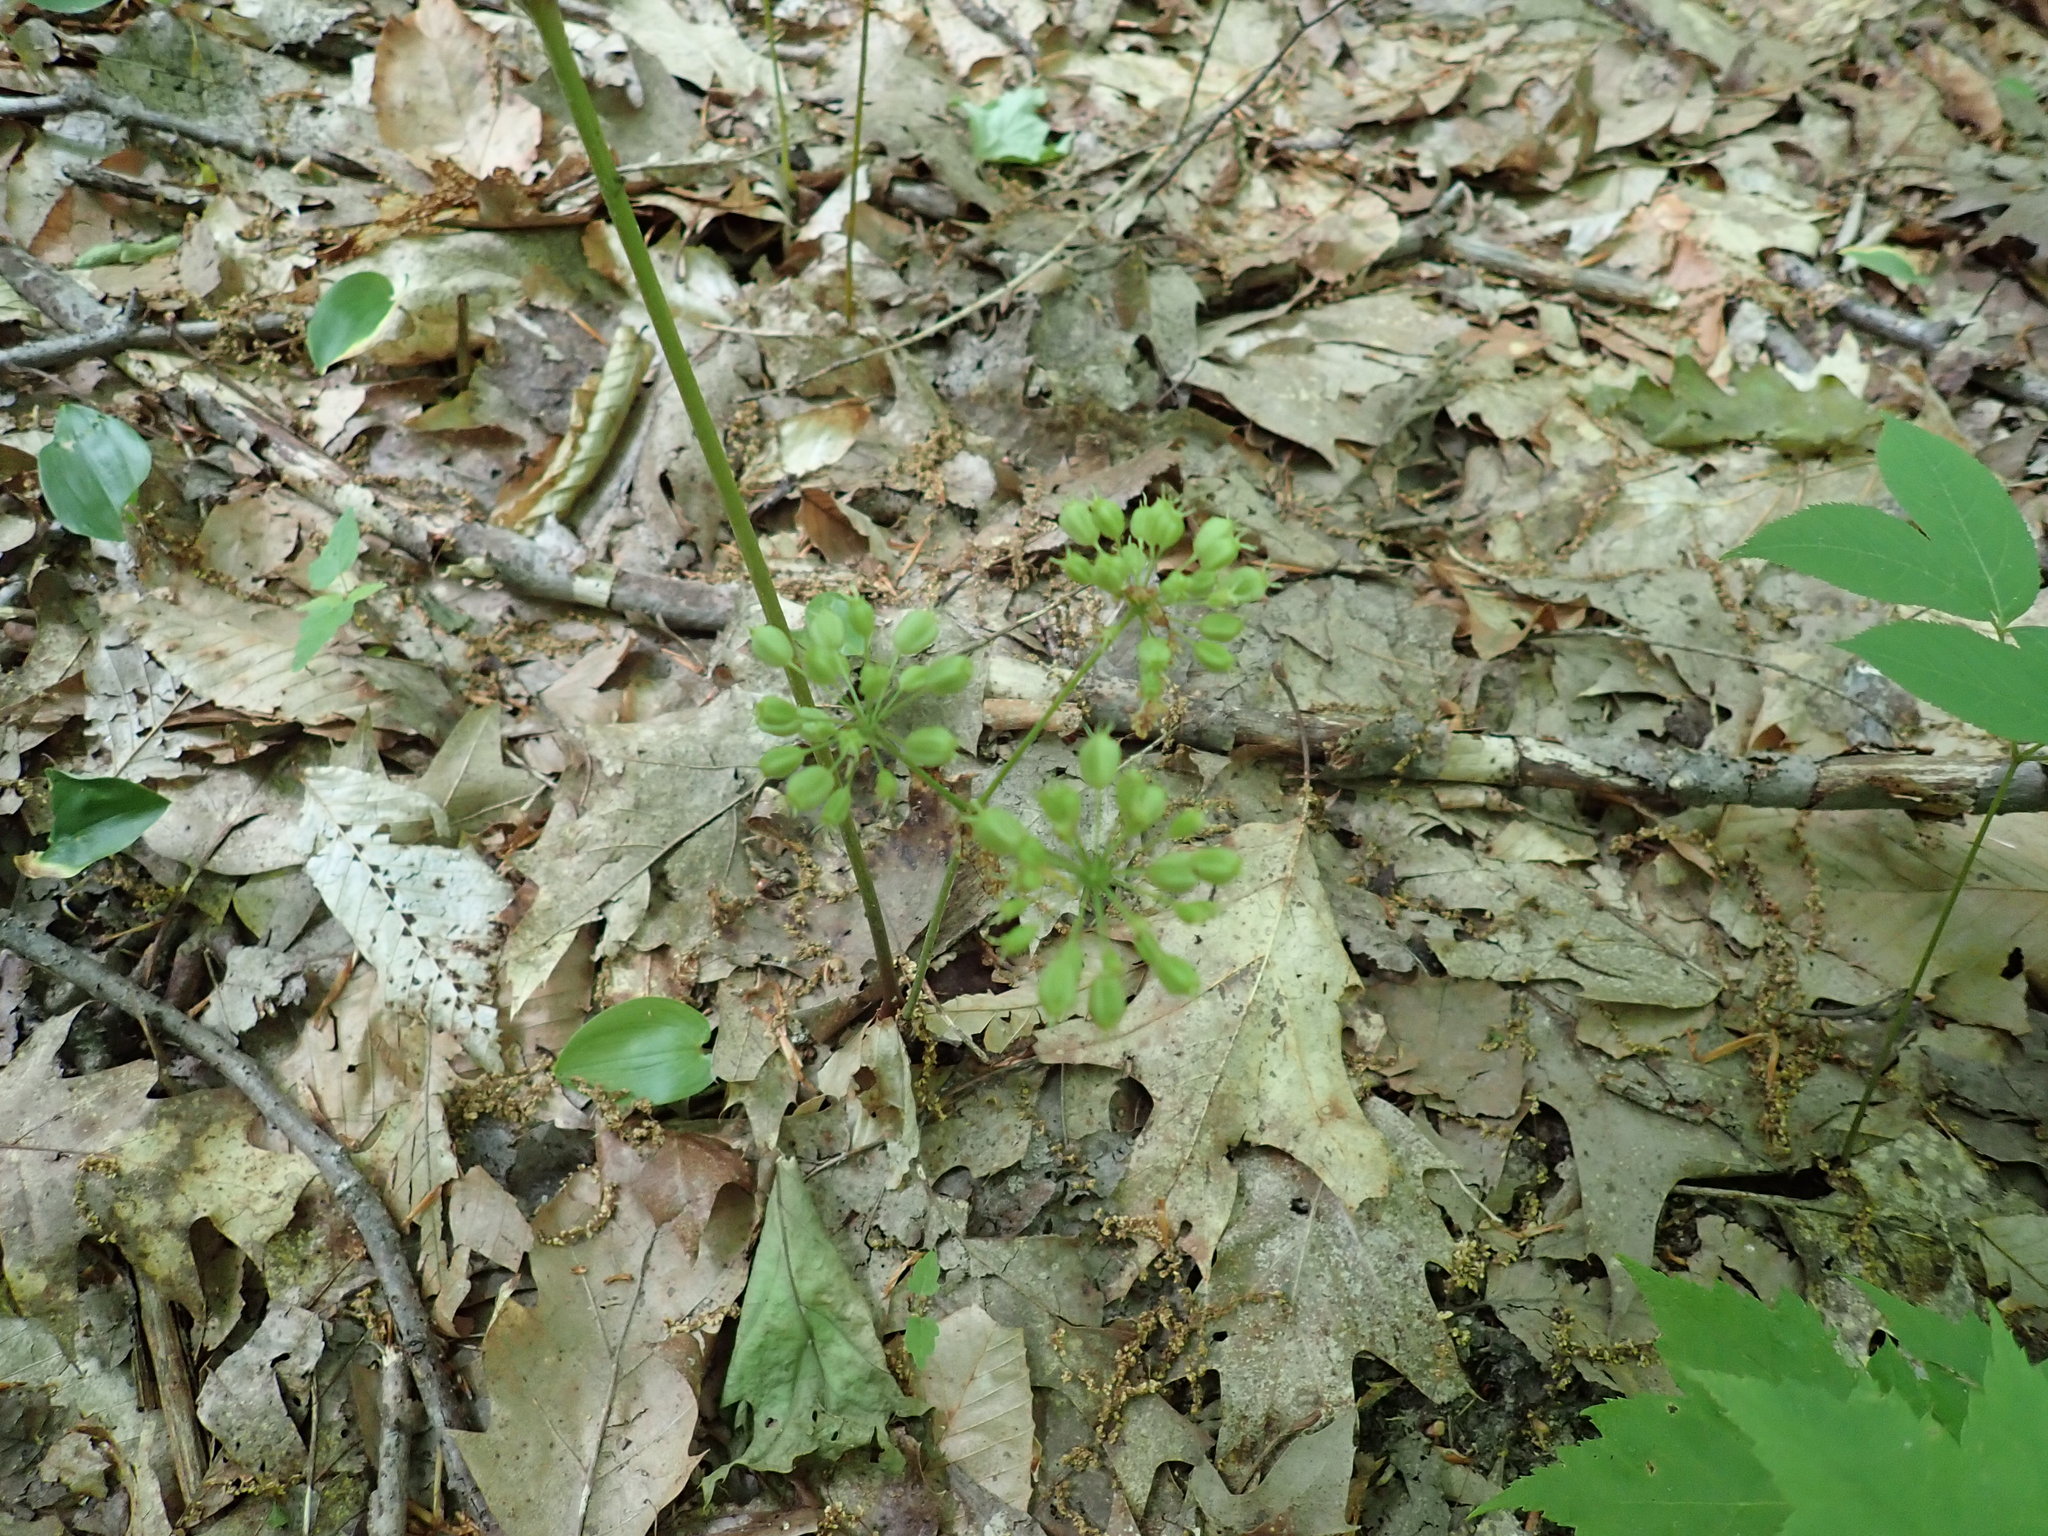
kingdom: Plantae
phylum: Tracheophyta
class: Magnoliopsida
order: Apiales
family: Araliaceae
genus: Aralia
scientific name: Aralia nudicaulis
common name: Wild sarsaparilla
